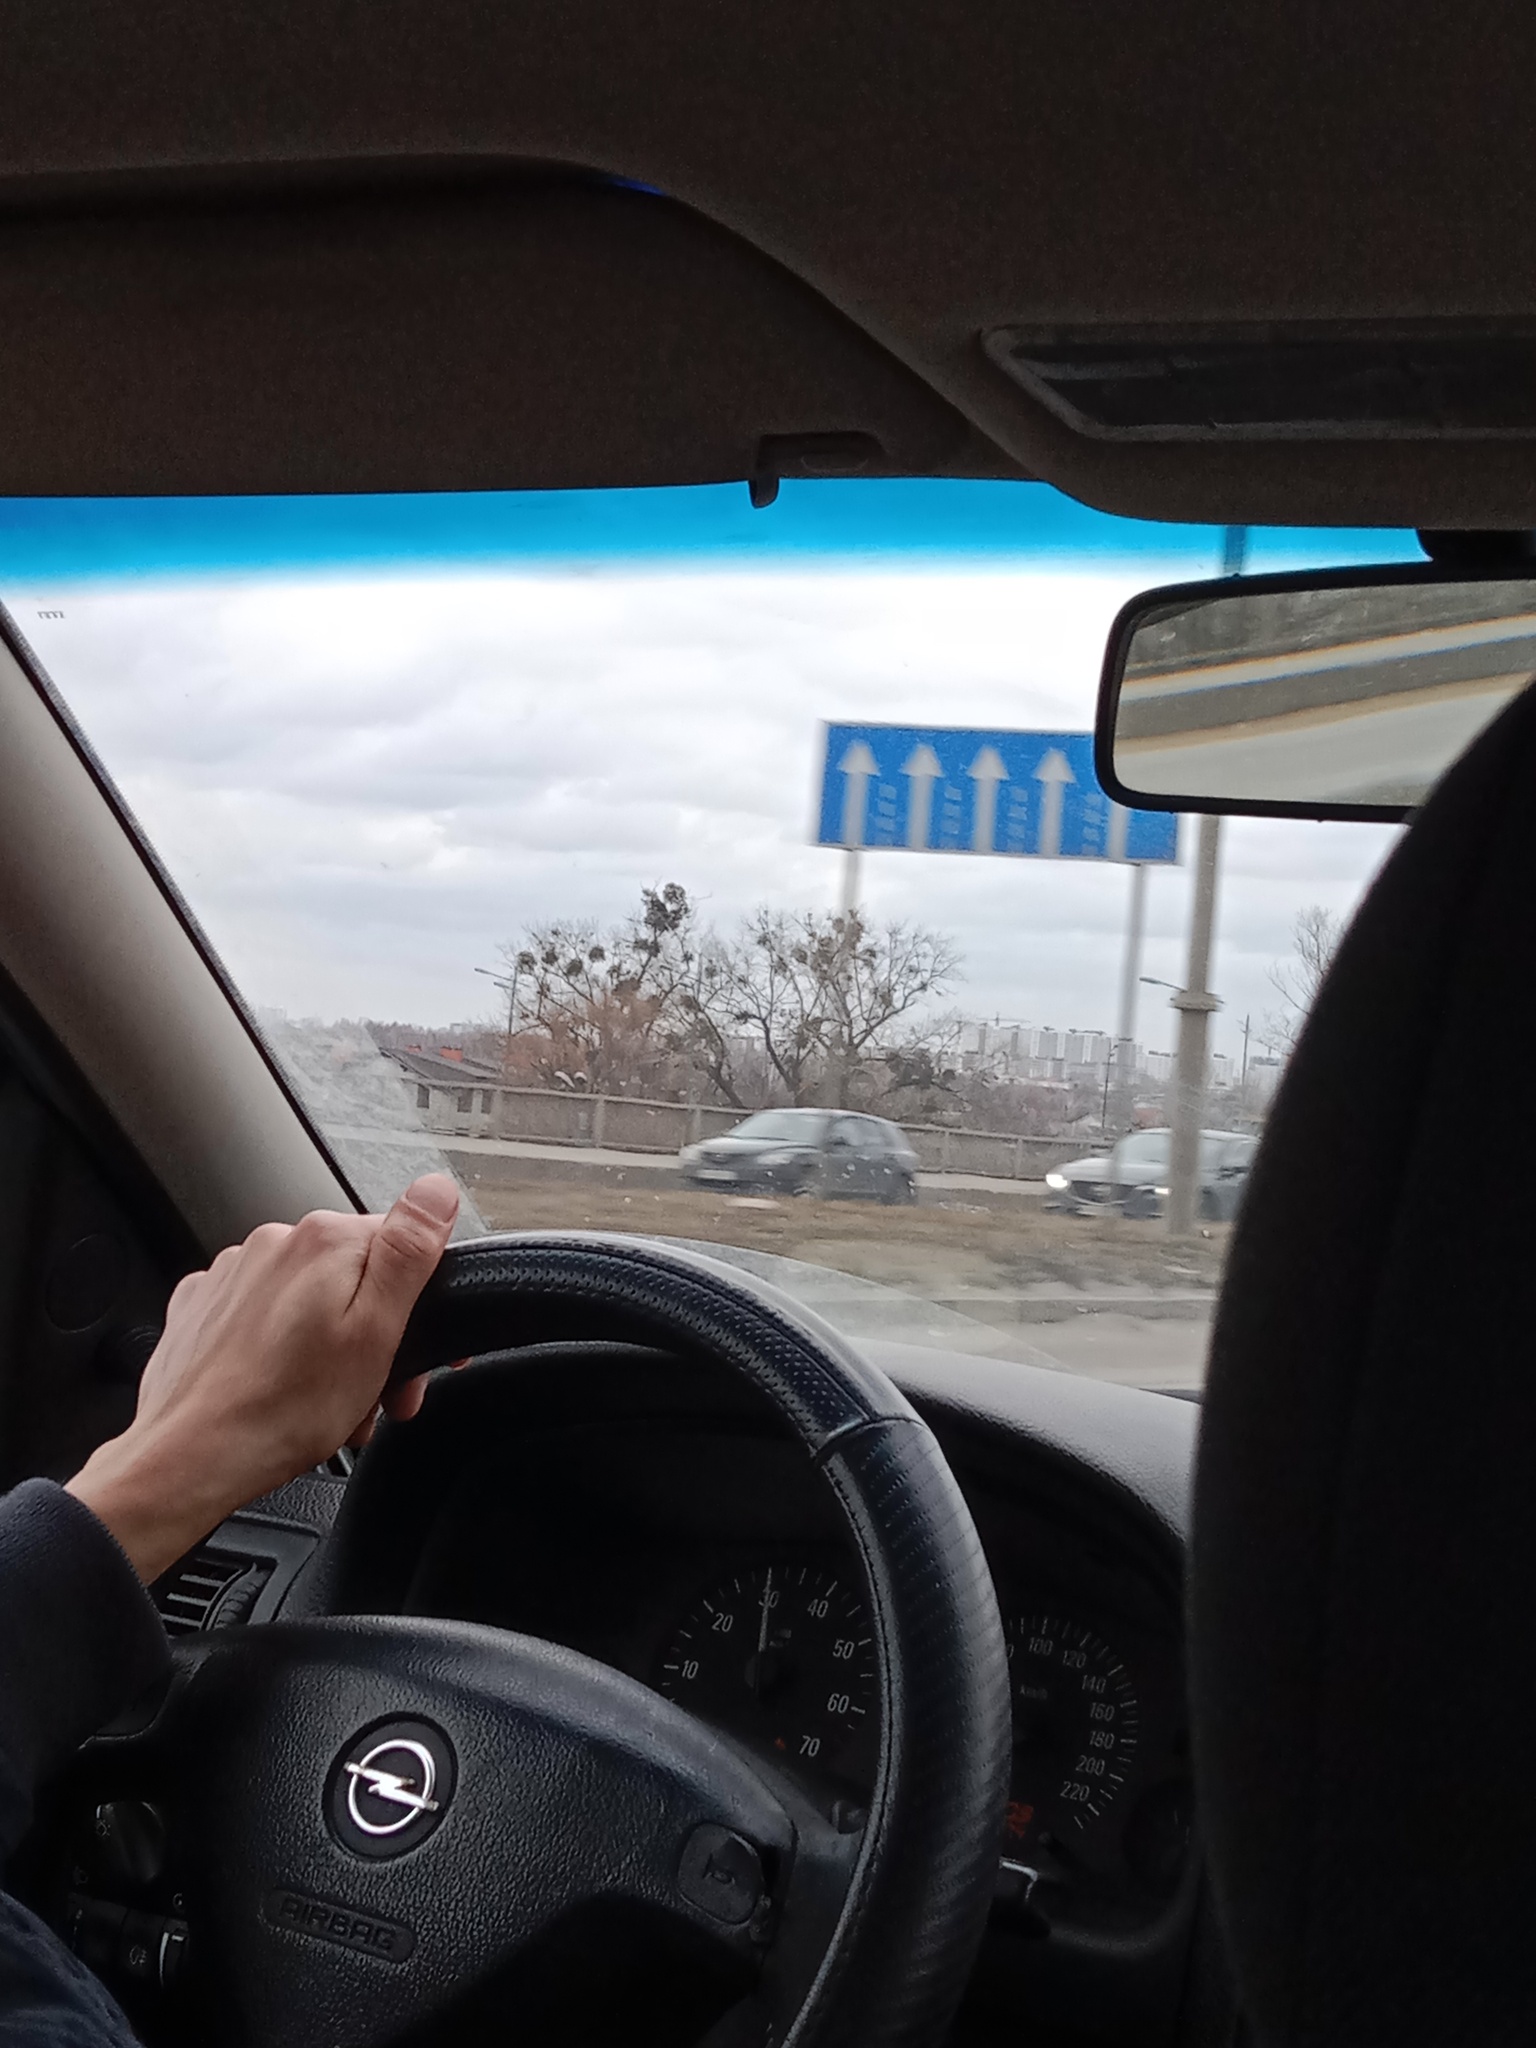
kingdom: Plantae
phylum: Tracheophyta
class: Magnoliopsida
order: Santalales
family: Viscaceae
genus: Viscum
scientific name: Viscum album
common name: Mistletoe
